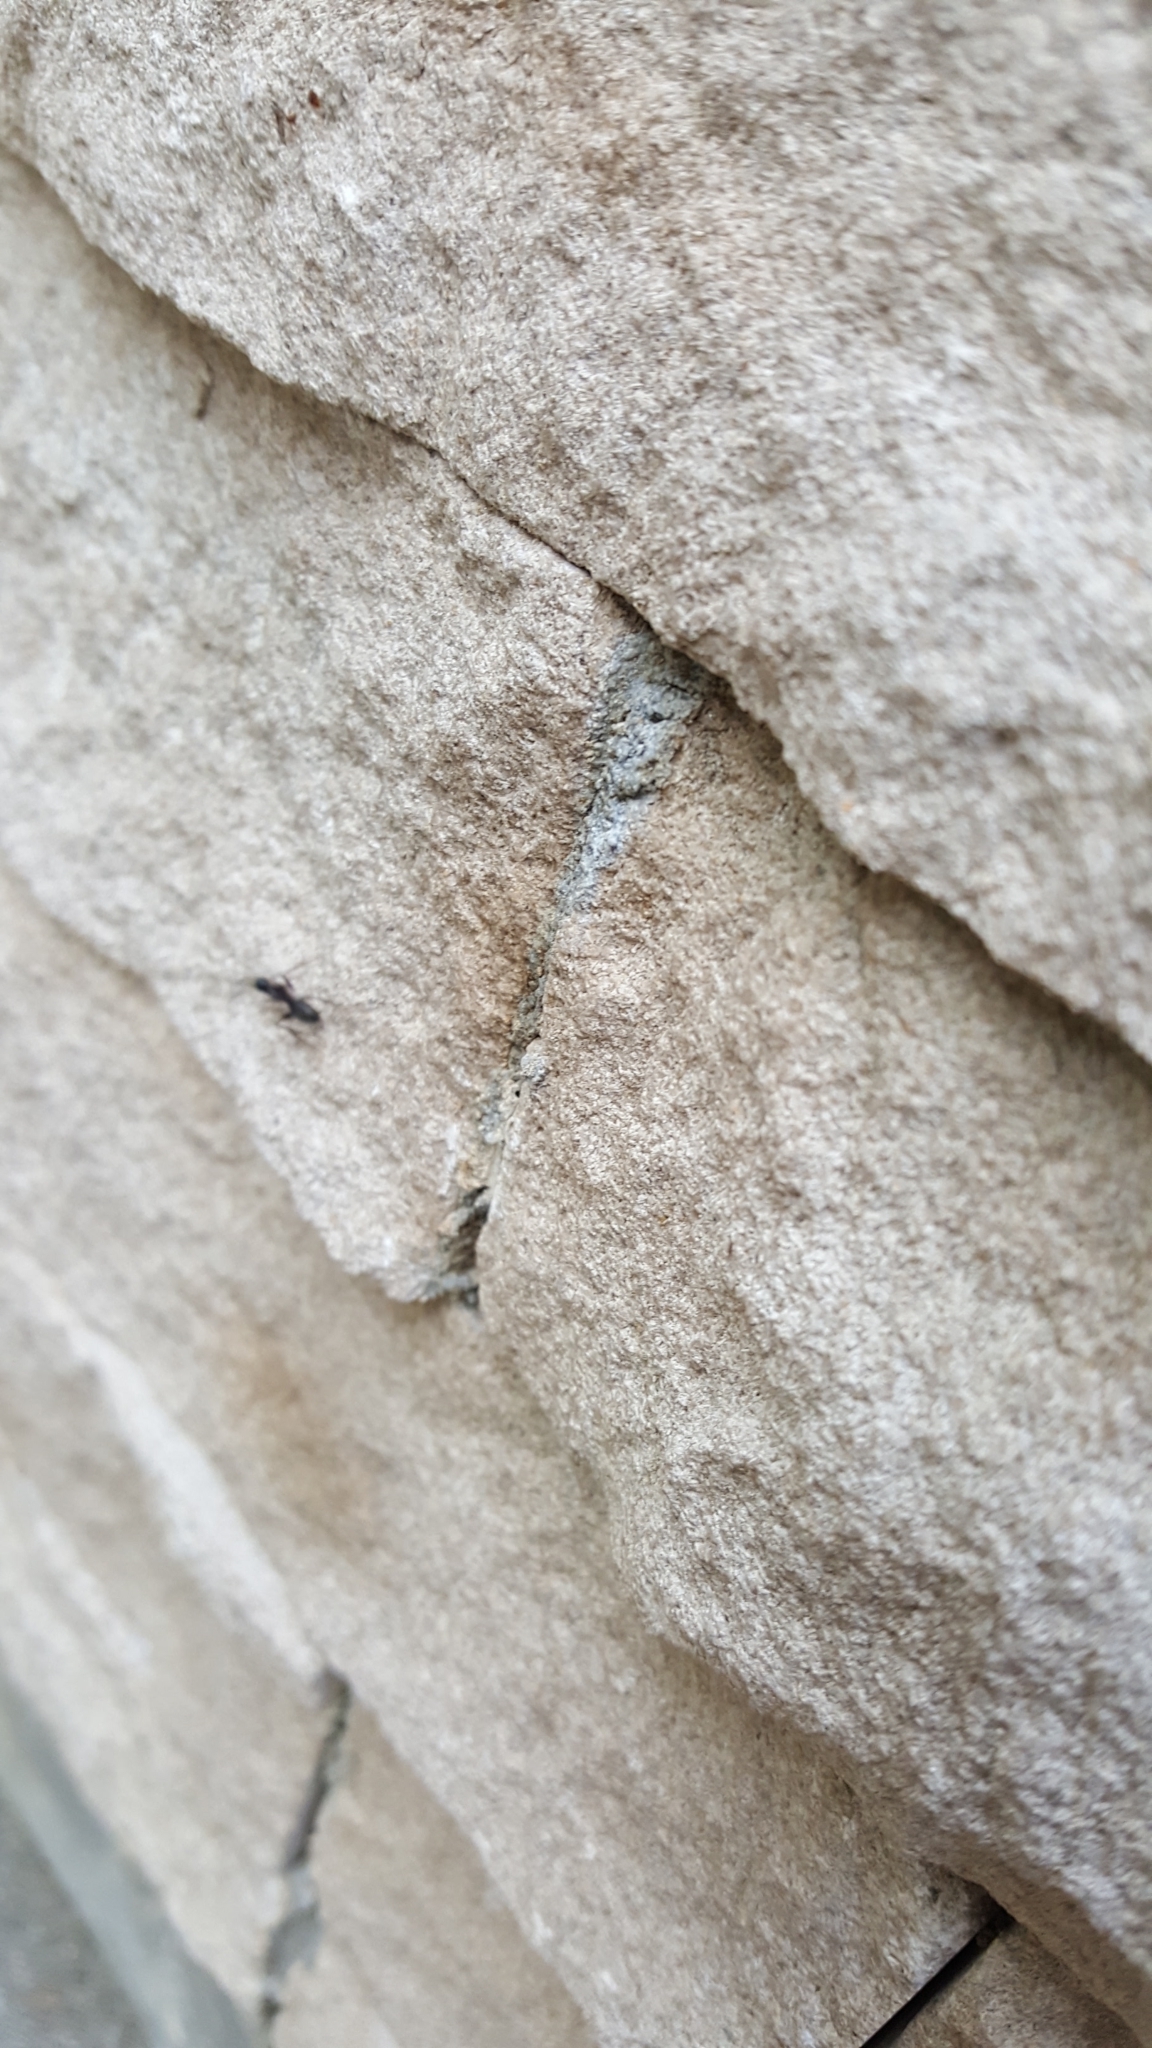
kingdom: Animalia
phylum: Arthropoda
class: Insecta
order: Hymenoptera
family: Formicidae
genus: Camponotus
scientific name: Camponotus pennsylvanicus
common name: Black carpenter ant
